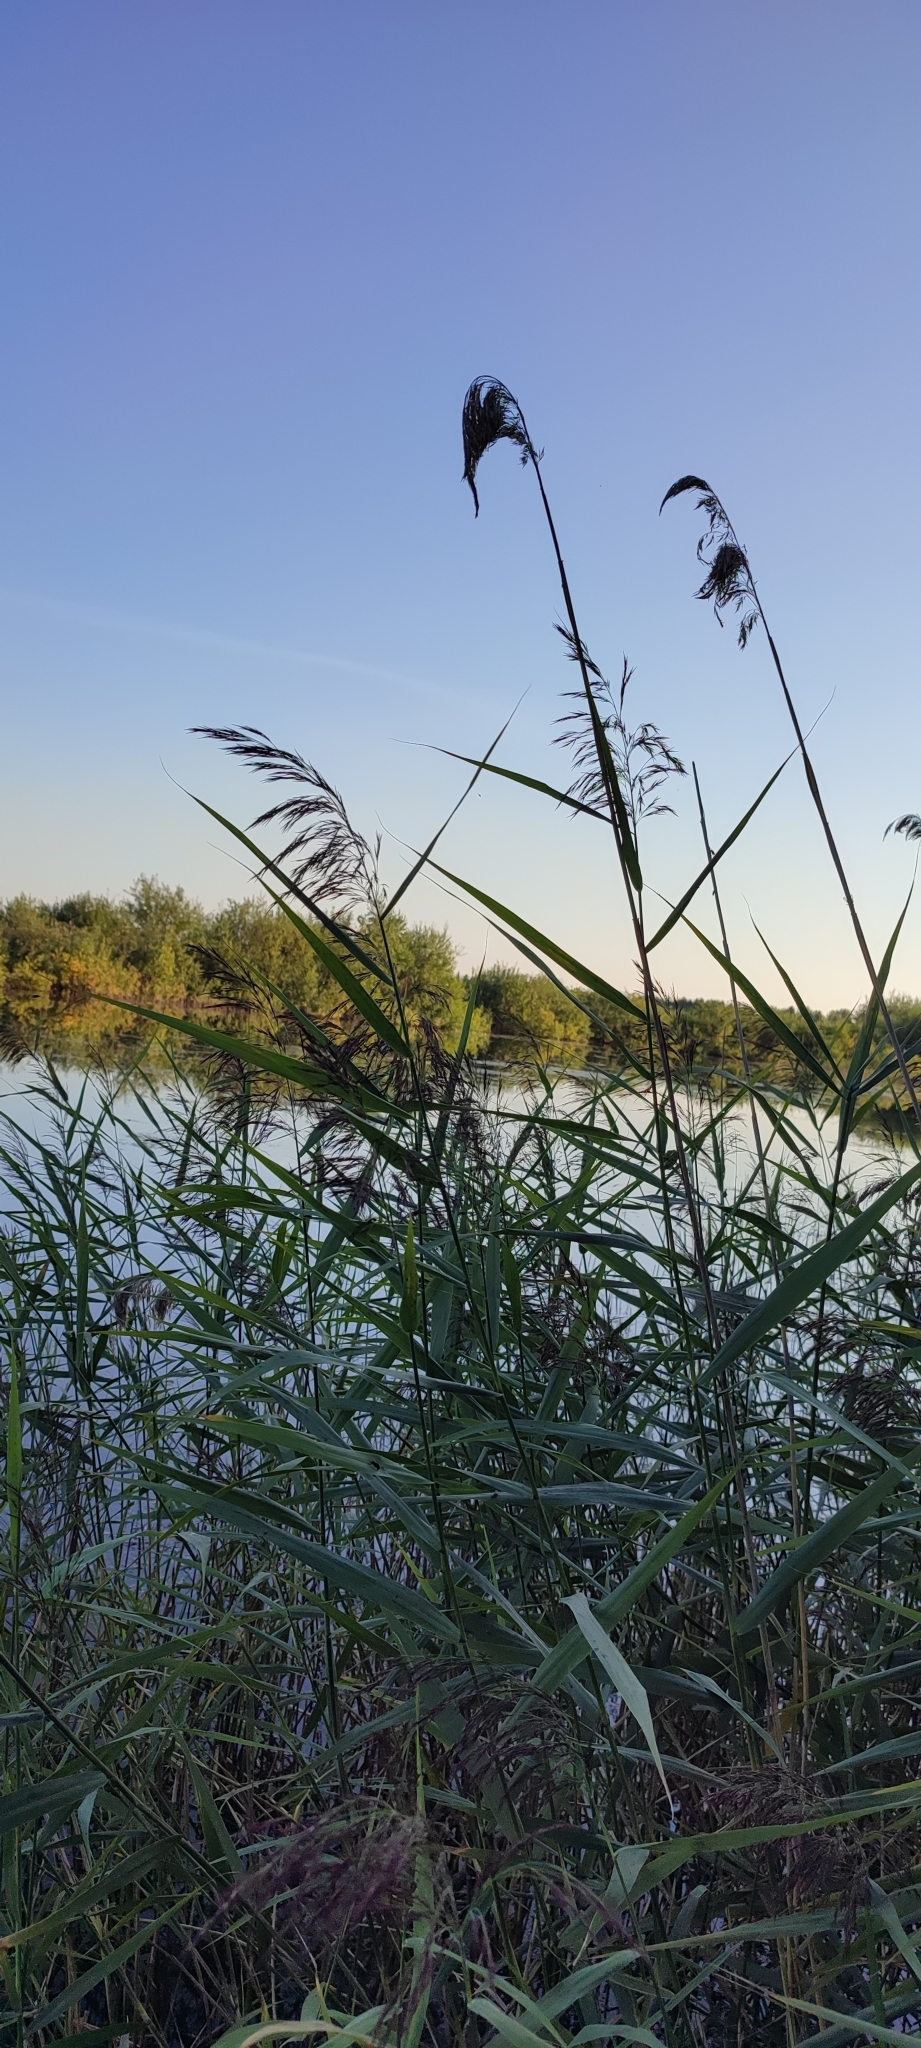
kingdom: Plantae
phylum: Tracheophyta
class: Liliopsida
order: Poales
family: Poaceae
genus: Phragmites
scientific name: Phragmites australis
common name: Common reed
